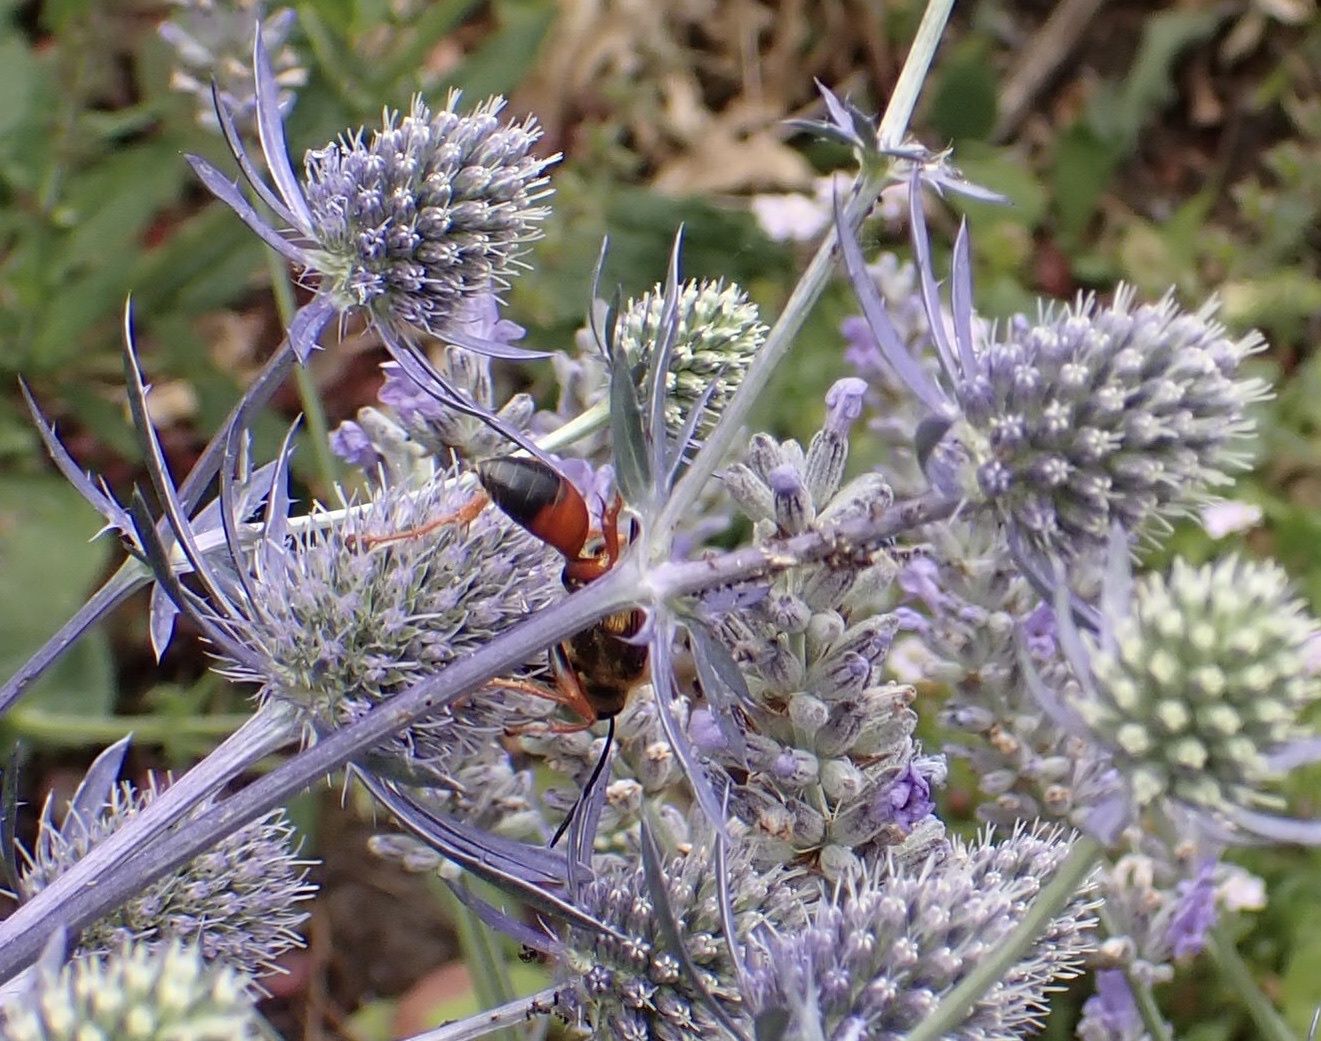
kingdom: Animalia
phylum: Arthropoda
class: Insecta
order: Hymenoptera
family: Sphecidae
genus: Sphex
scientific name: Sphex ichneumoneus
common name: Great golden digger wasp
